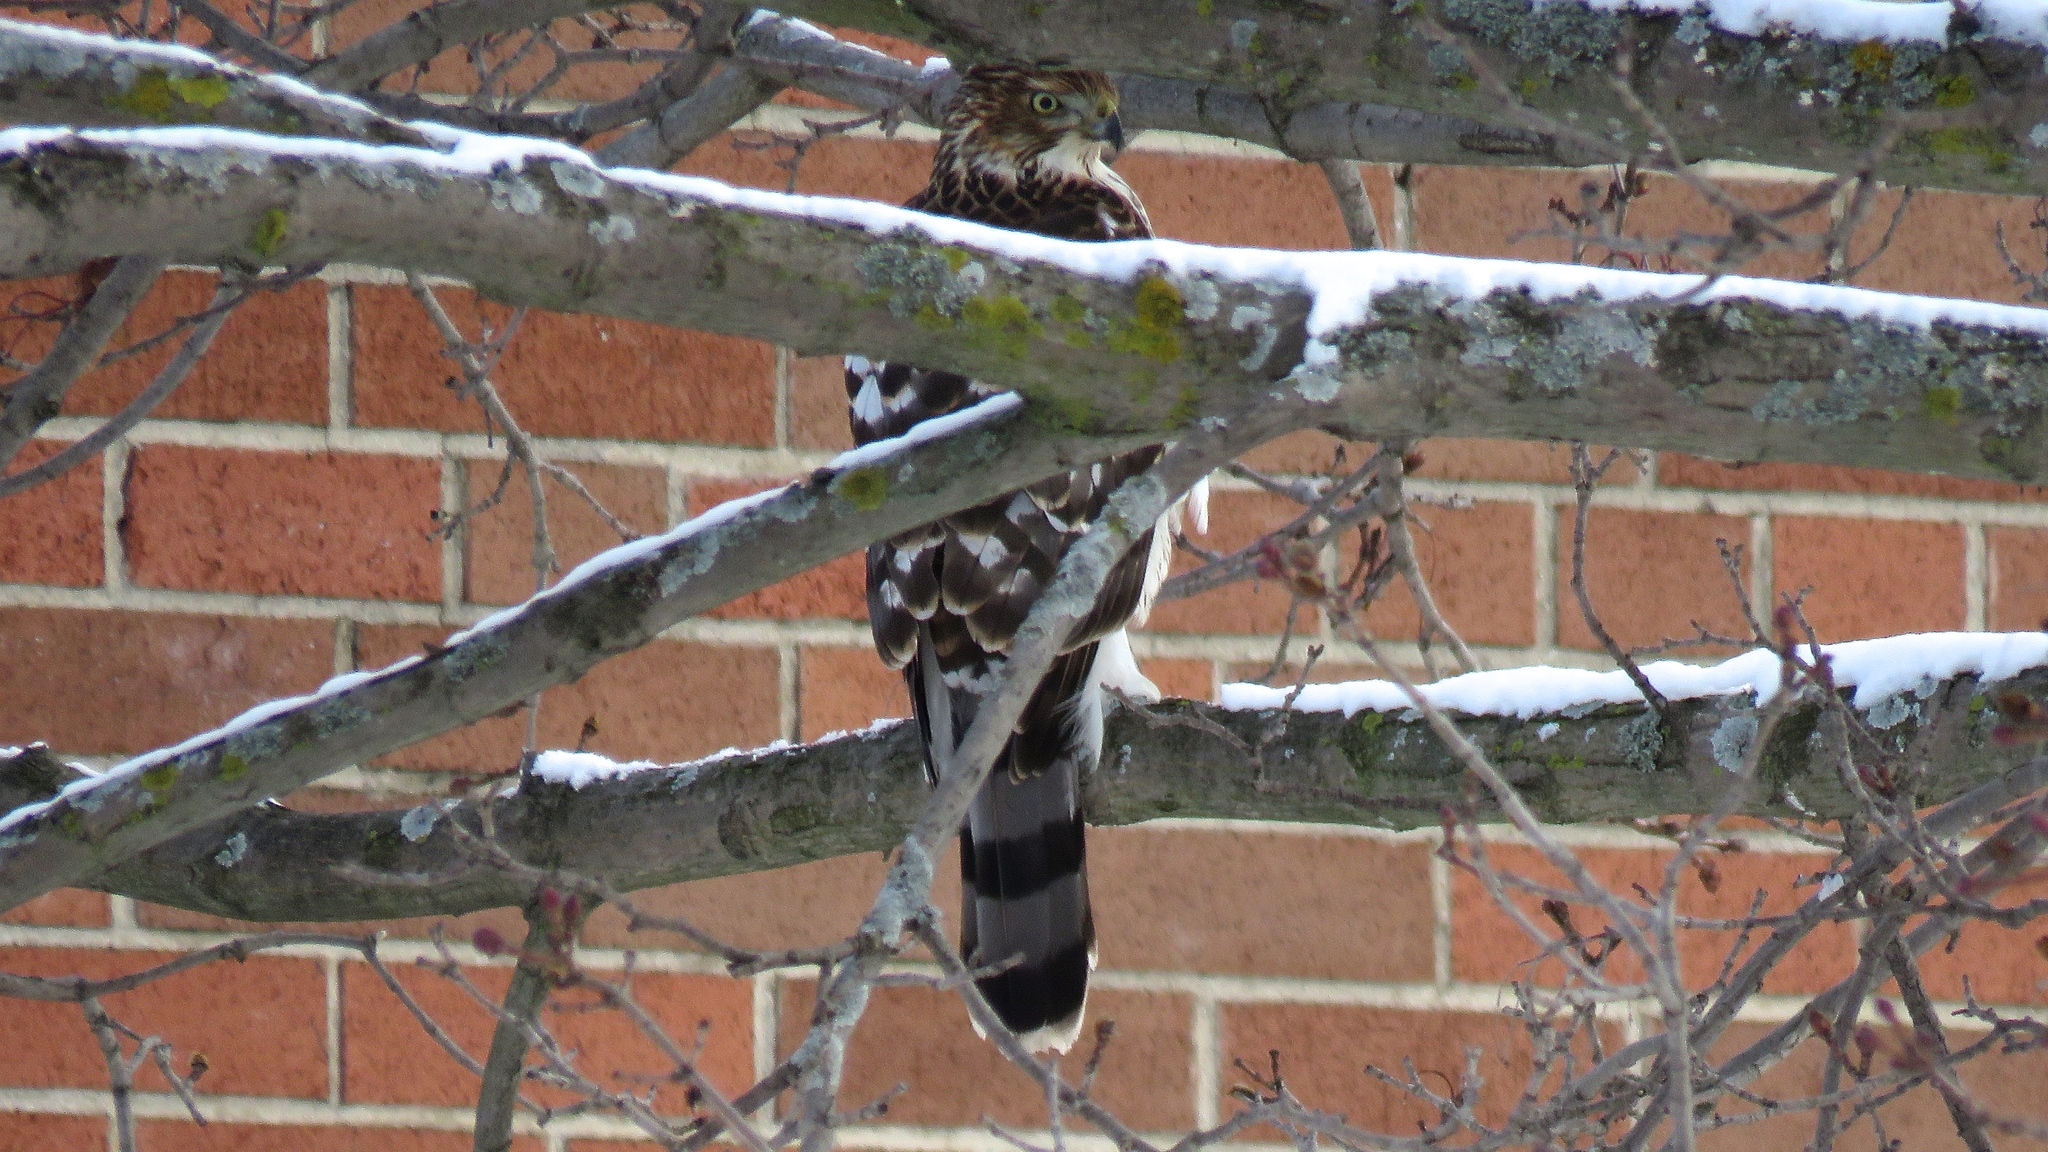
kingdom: Animalia
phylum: Chordata
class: Aves
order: Accipitriformes
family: Accipitridae
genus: Accipiter
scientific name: Accipiter cooperii
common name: Cooper's hawk
